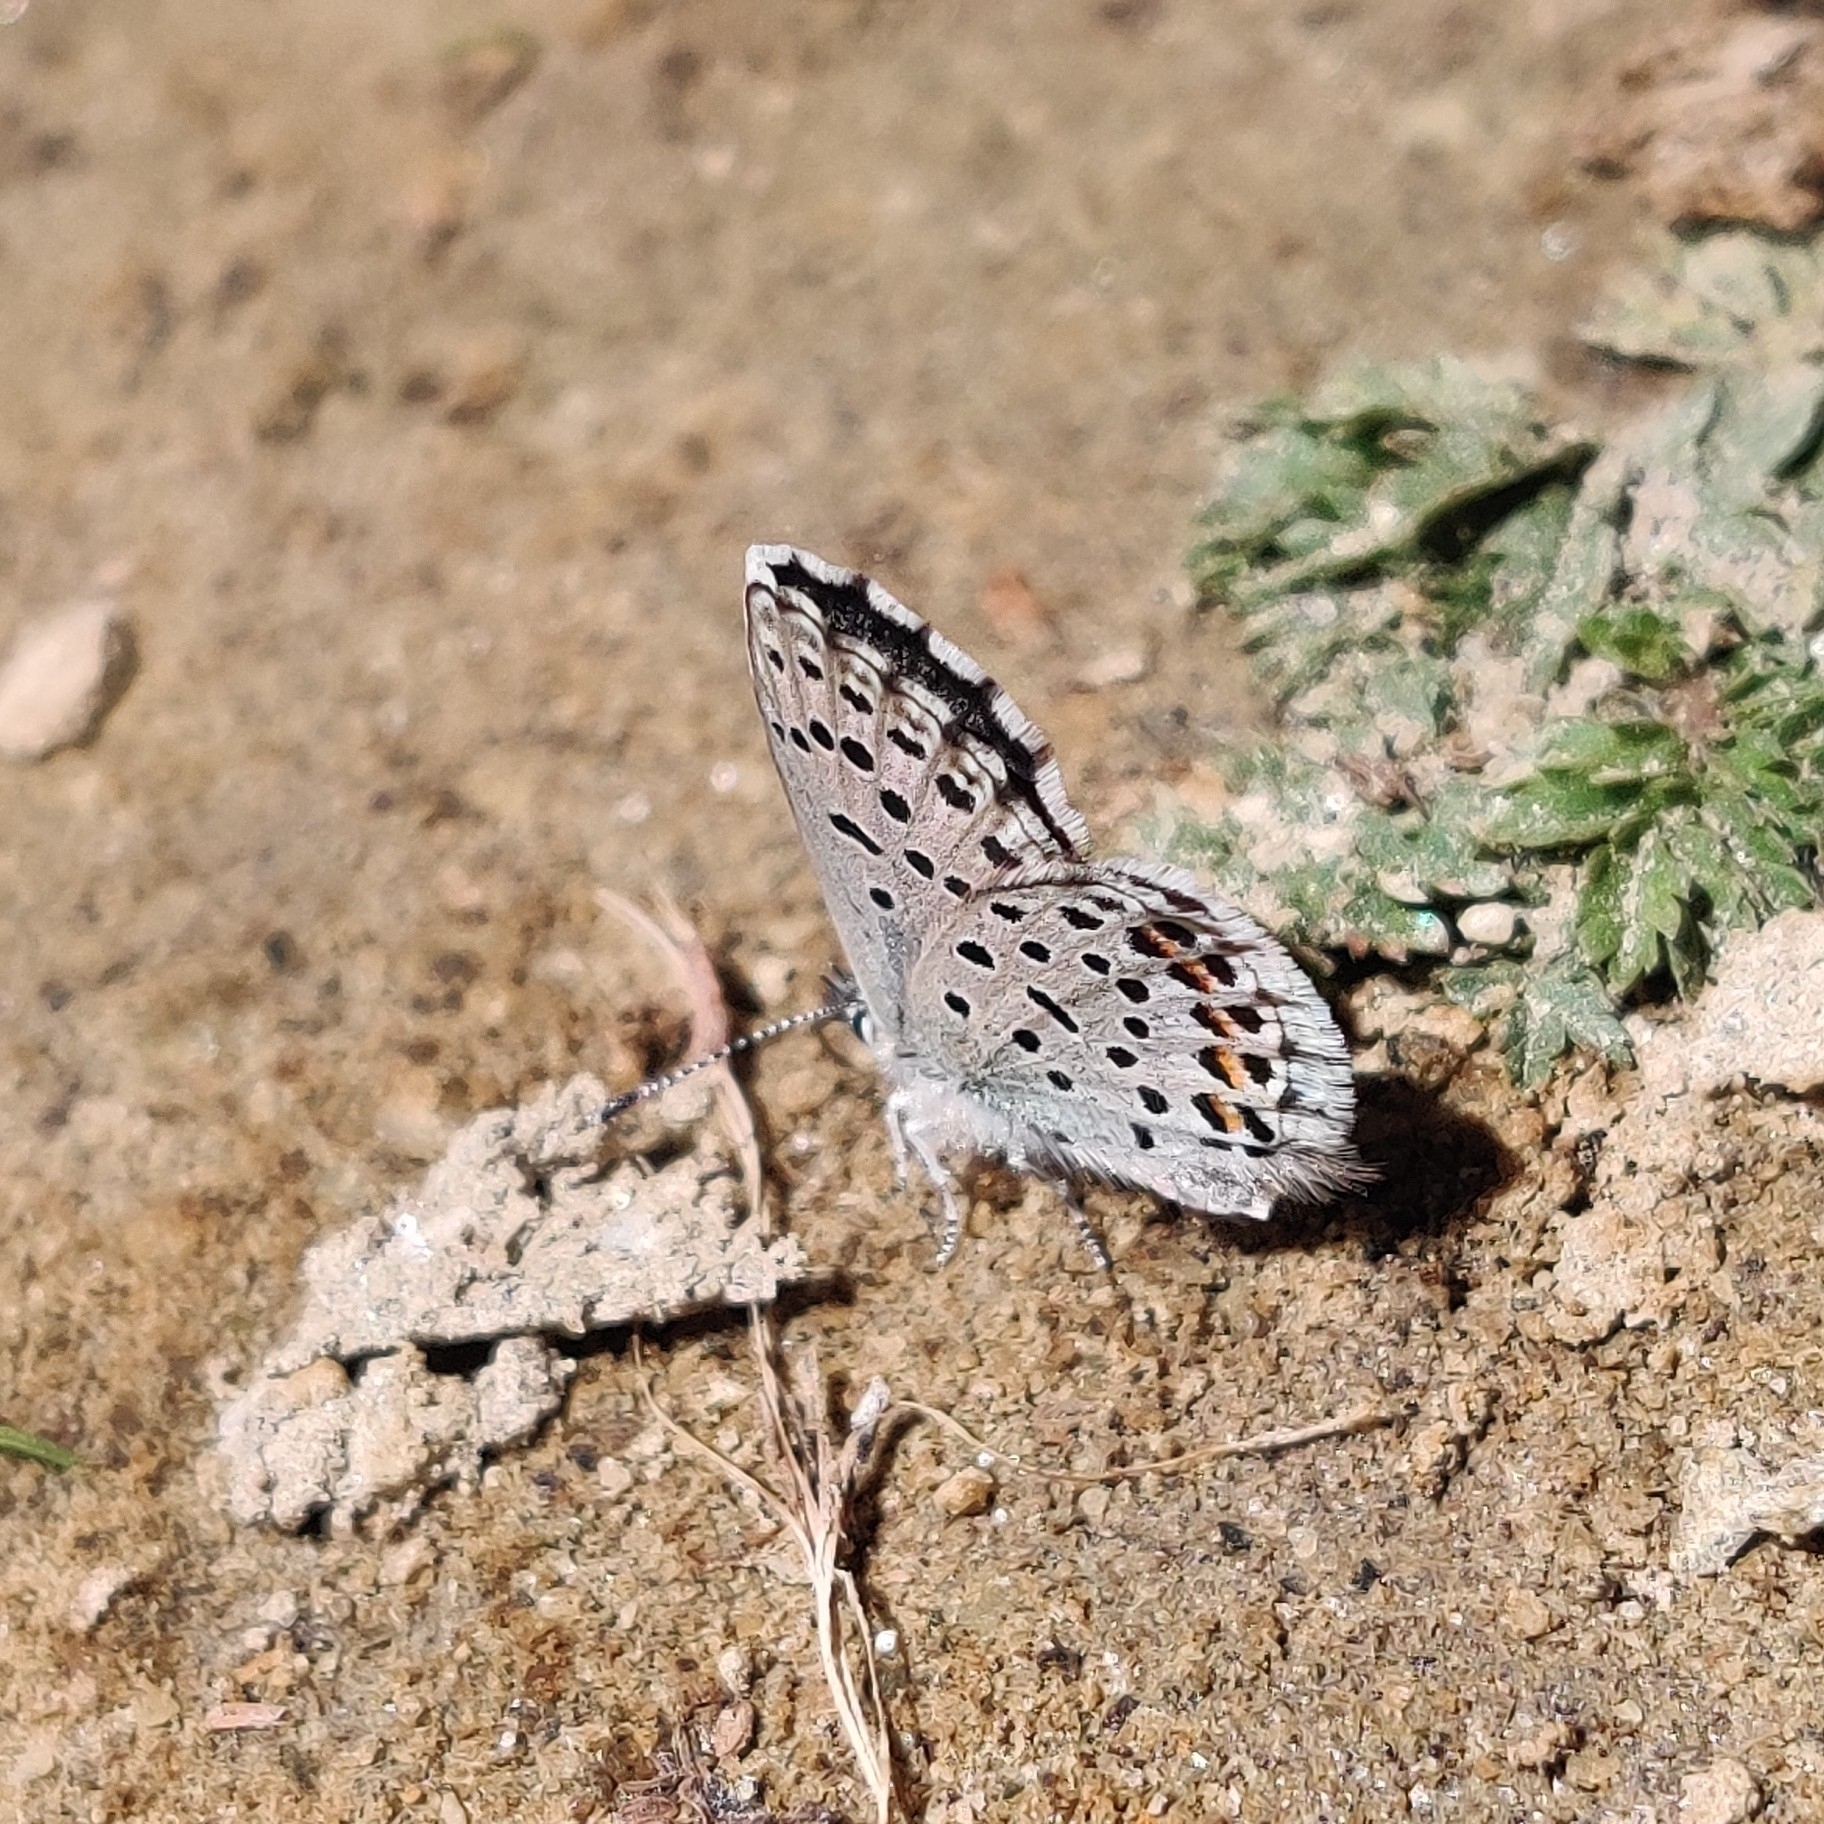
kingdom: Animalia
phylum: Arthropoda
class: Insecta
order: Lepidoptera
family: Lycaenidae
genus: Pseudophilotes
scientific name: Pseudophilotes baton
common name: Baton blue
